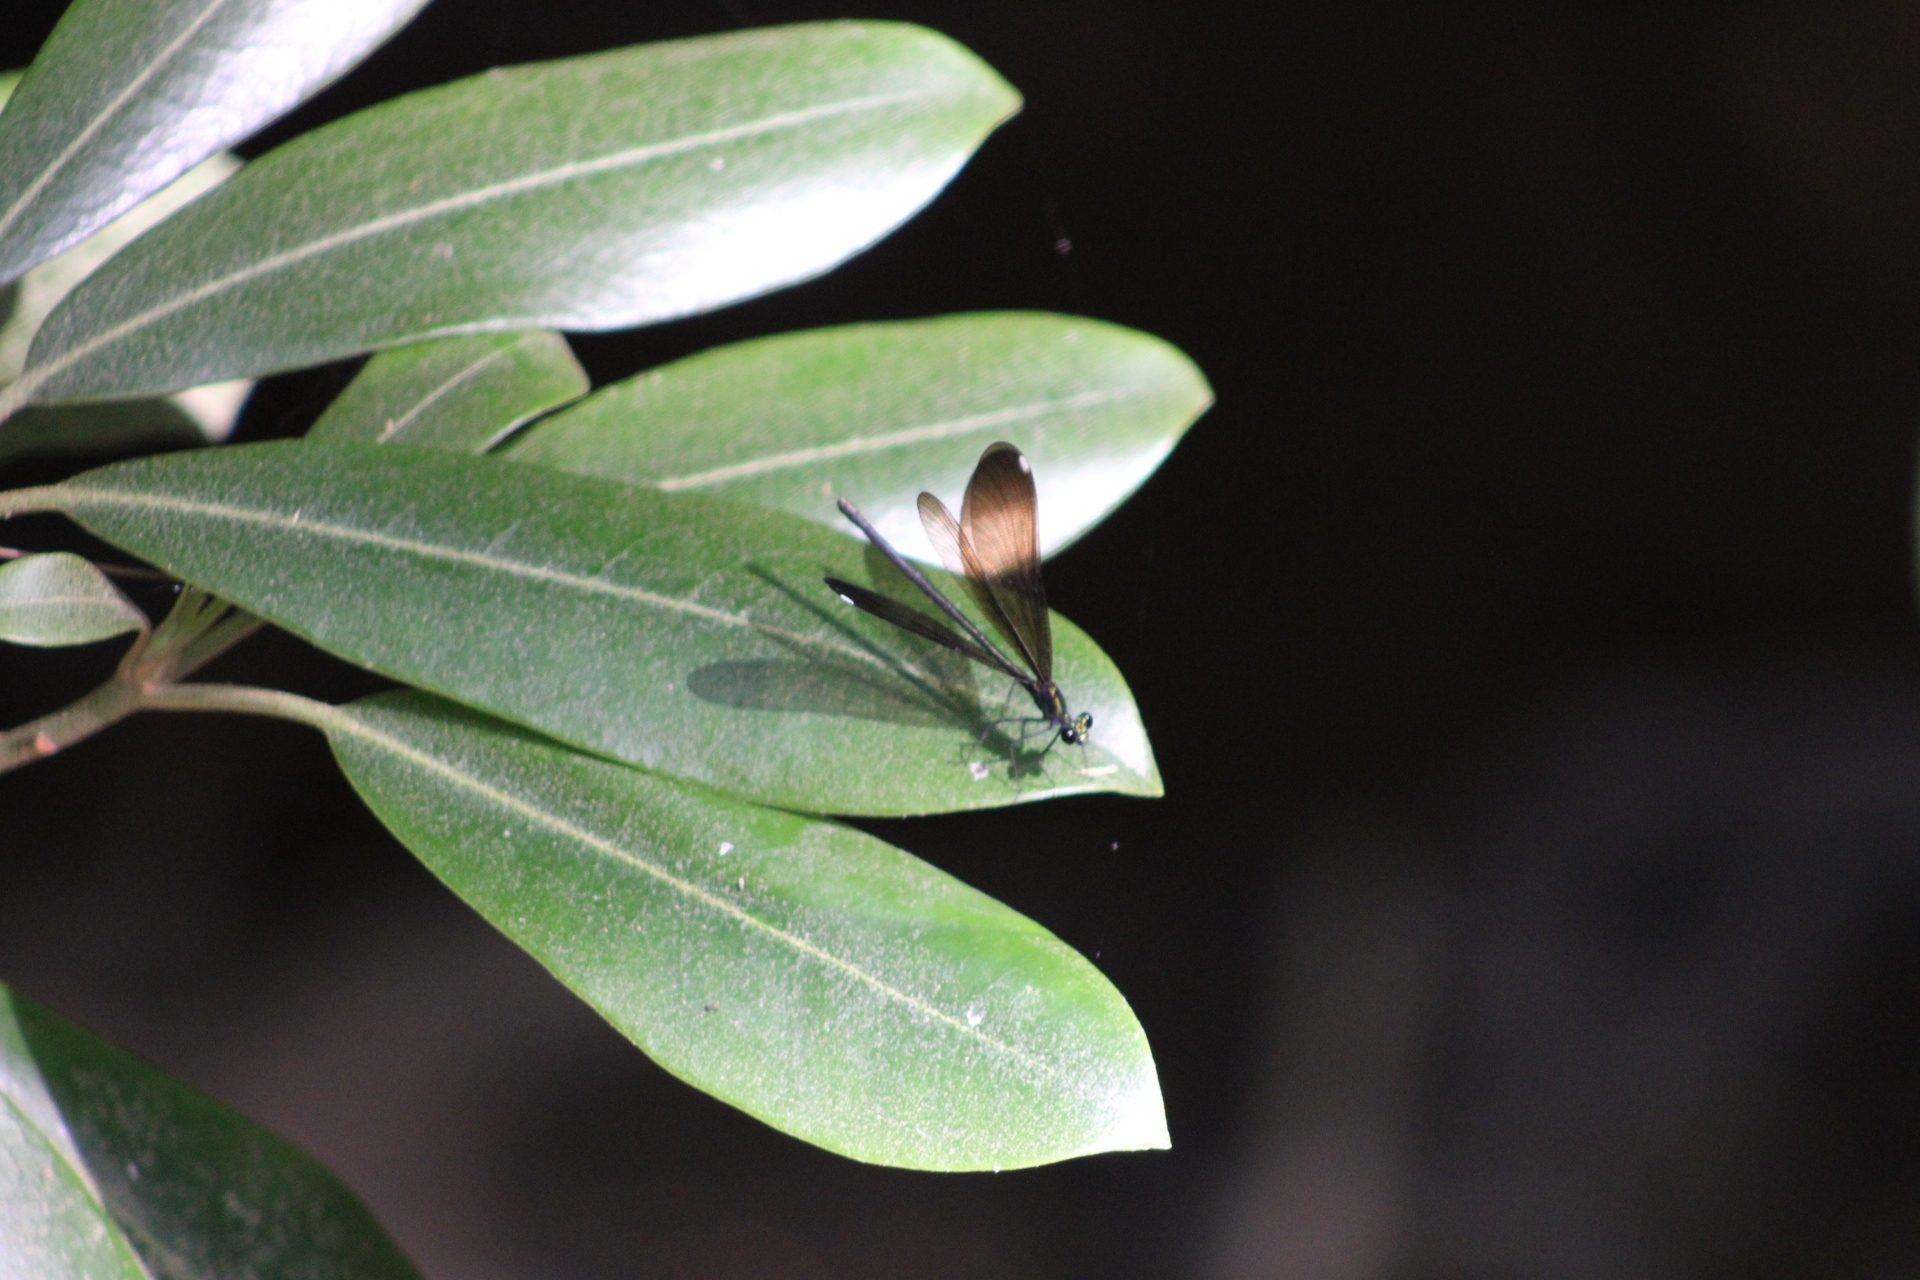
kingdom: Animalia
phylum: Arthropoda
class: Insecta
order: Odonata
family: Calopterygidae
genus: Calopteryx
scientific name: Calopteryx maculata
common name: Ebony jewelwing
